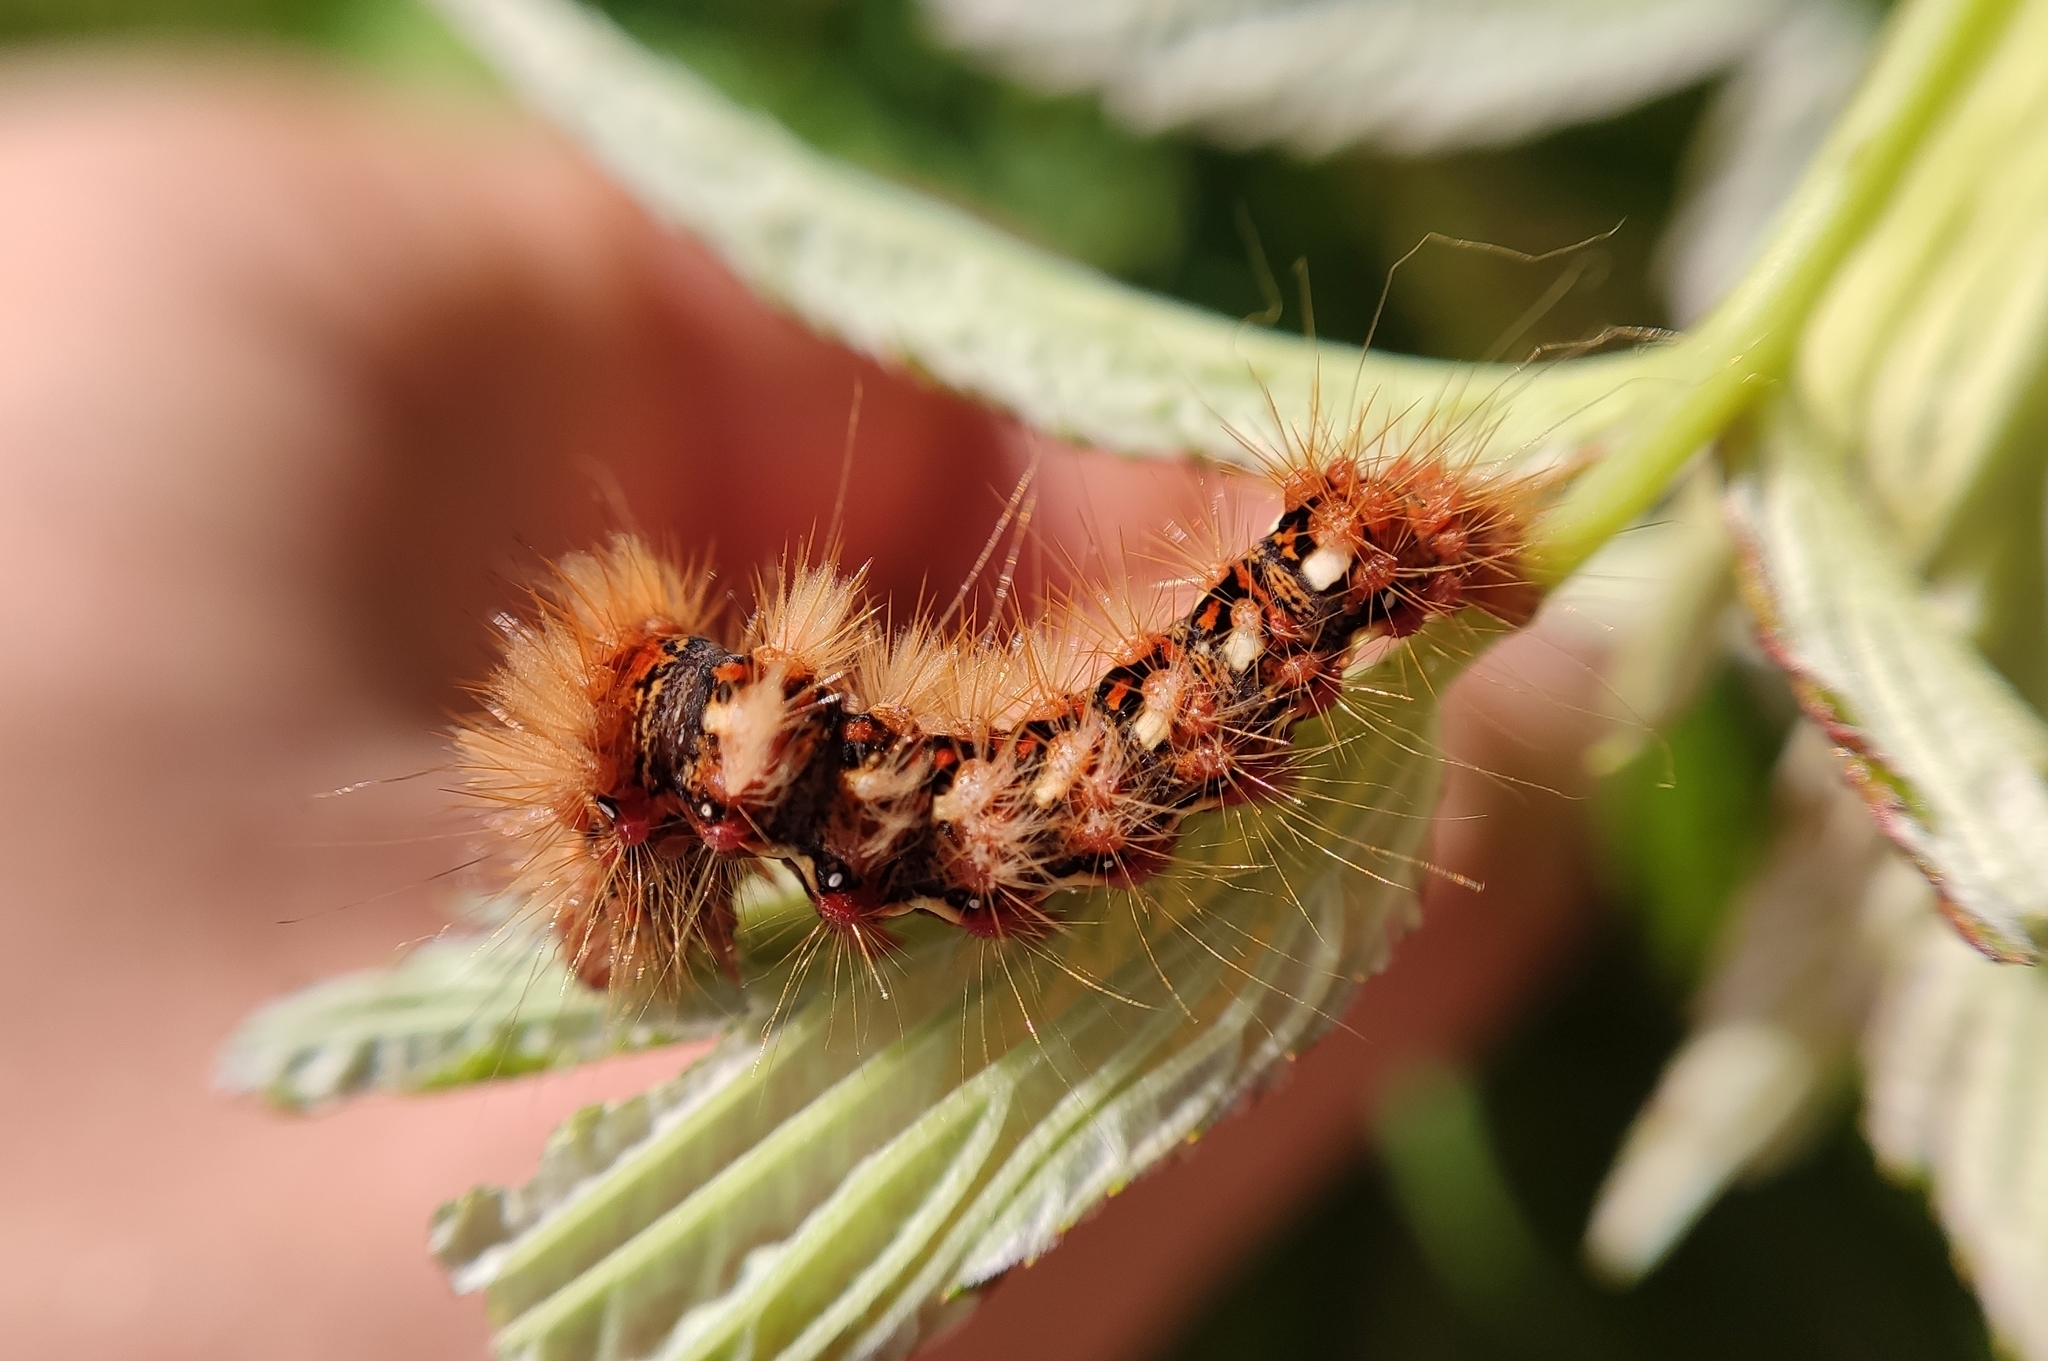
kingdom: Animalia
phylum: Arthropoda
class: Insecta
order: Lepidoptera
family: Noctuidae
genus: Acronicta
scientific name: Acronicta rumicis
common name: Knot grass
